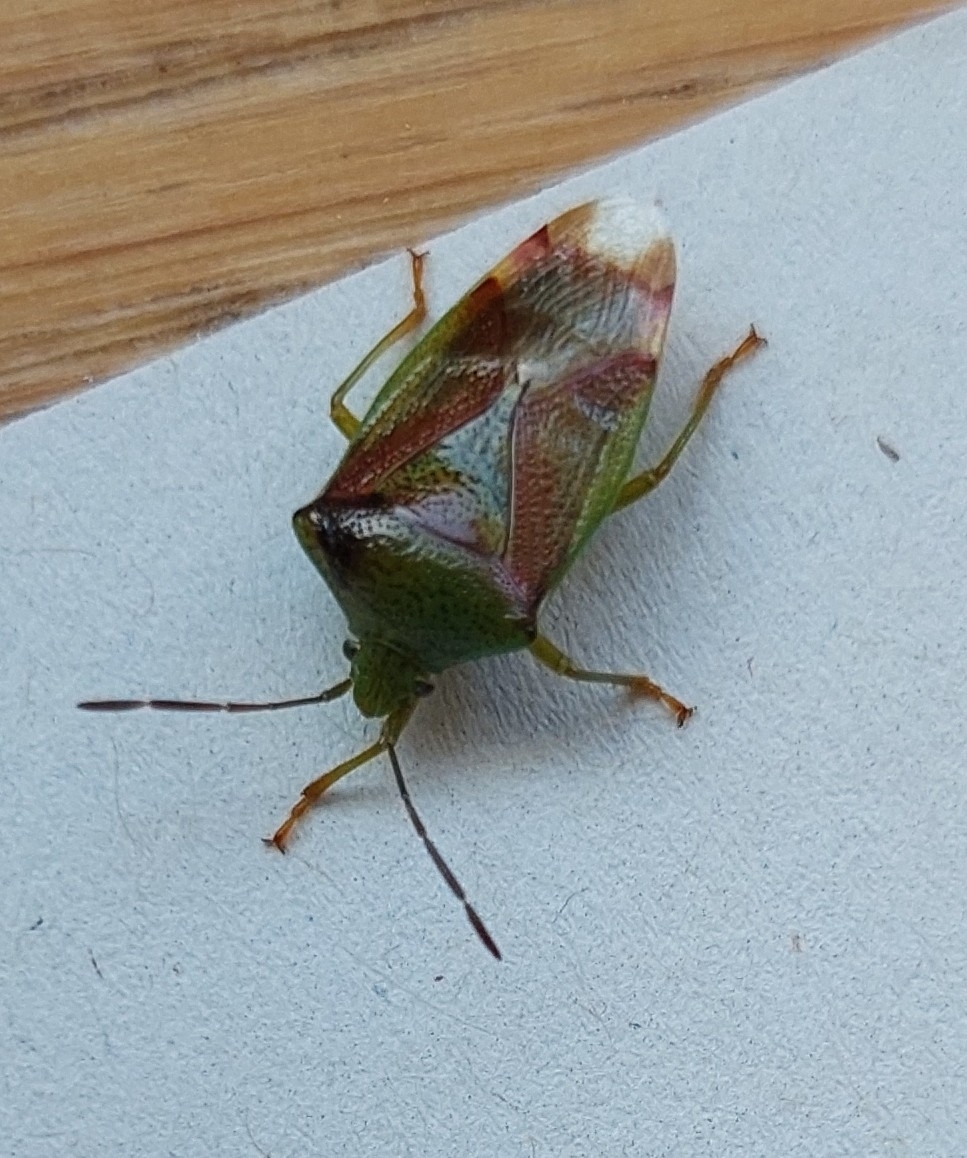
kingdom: Animalia
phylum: Arthropoda
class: Insecta
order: Hemiptera
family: Acanthosomatidae
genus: Elasmostethus
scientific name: Elasmostethus interstinctus
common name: Birch shieldbug
